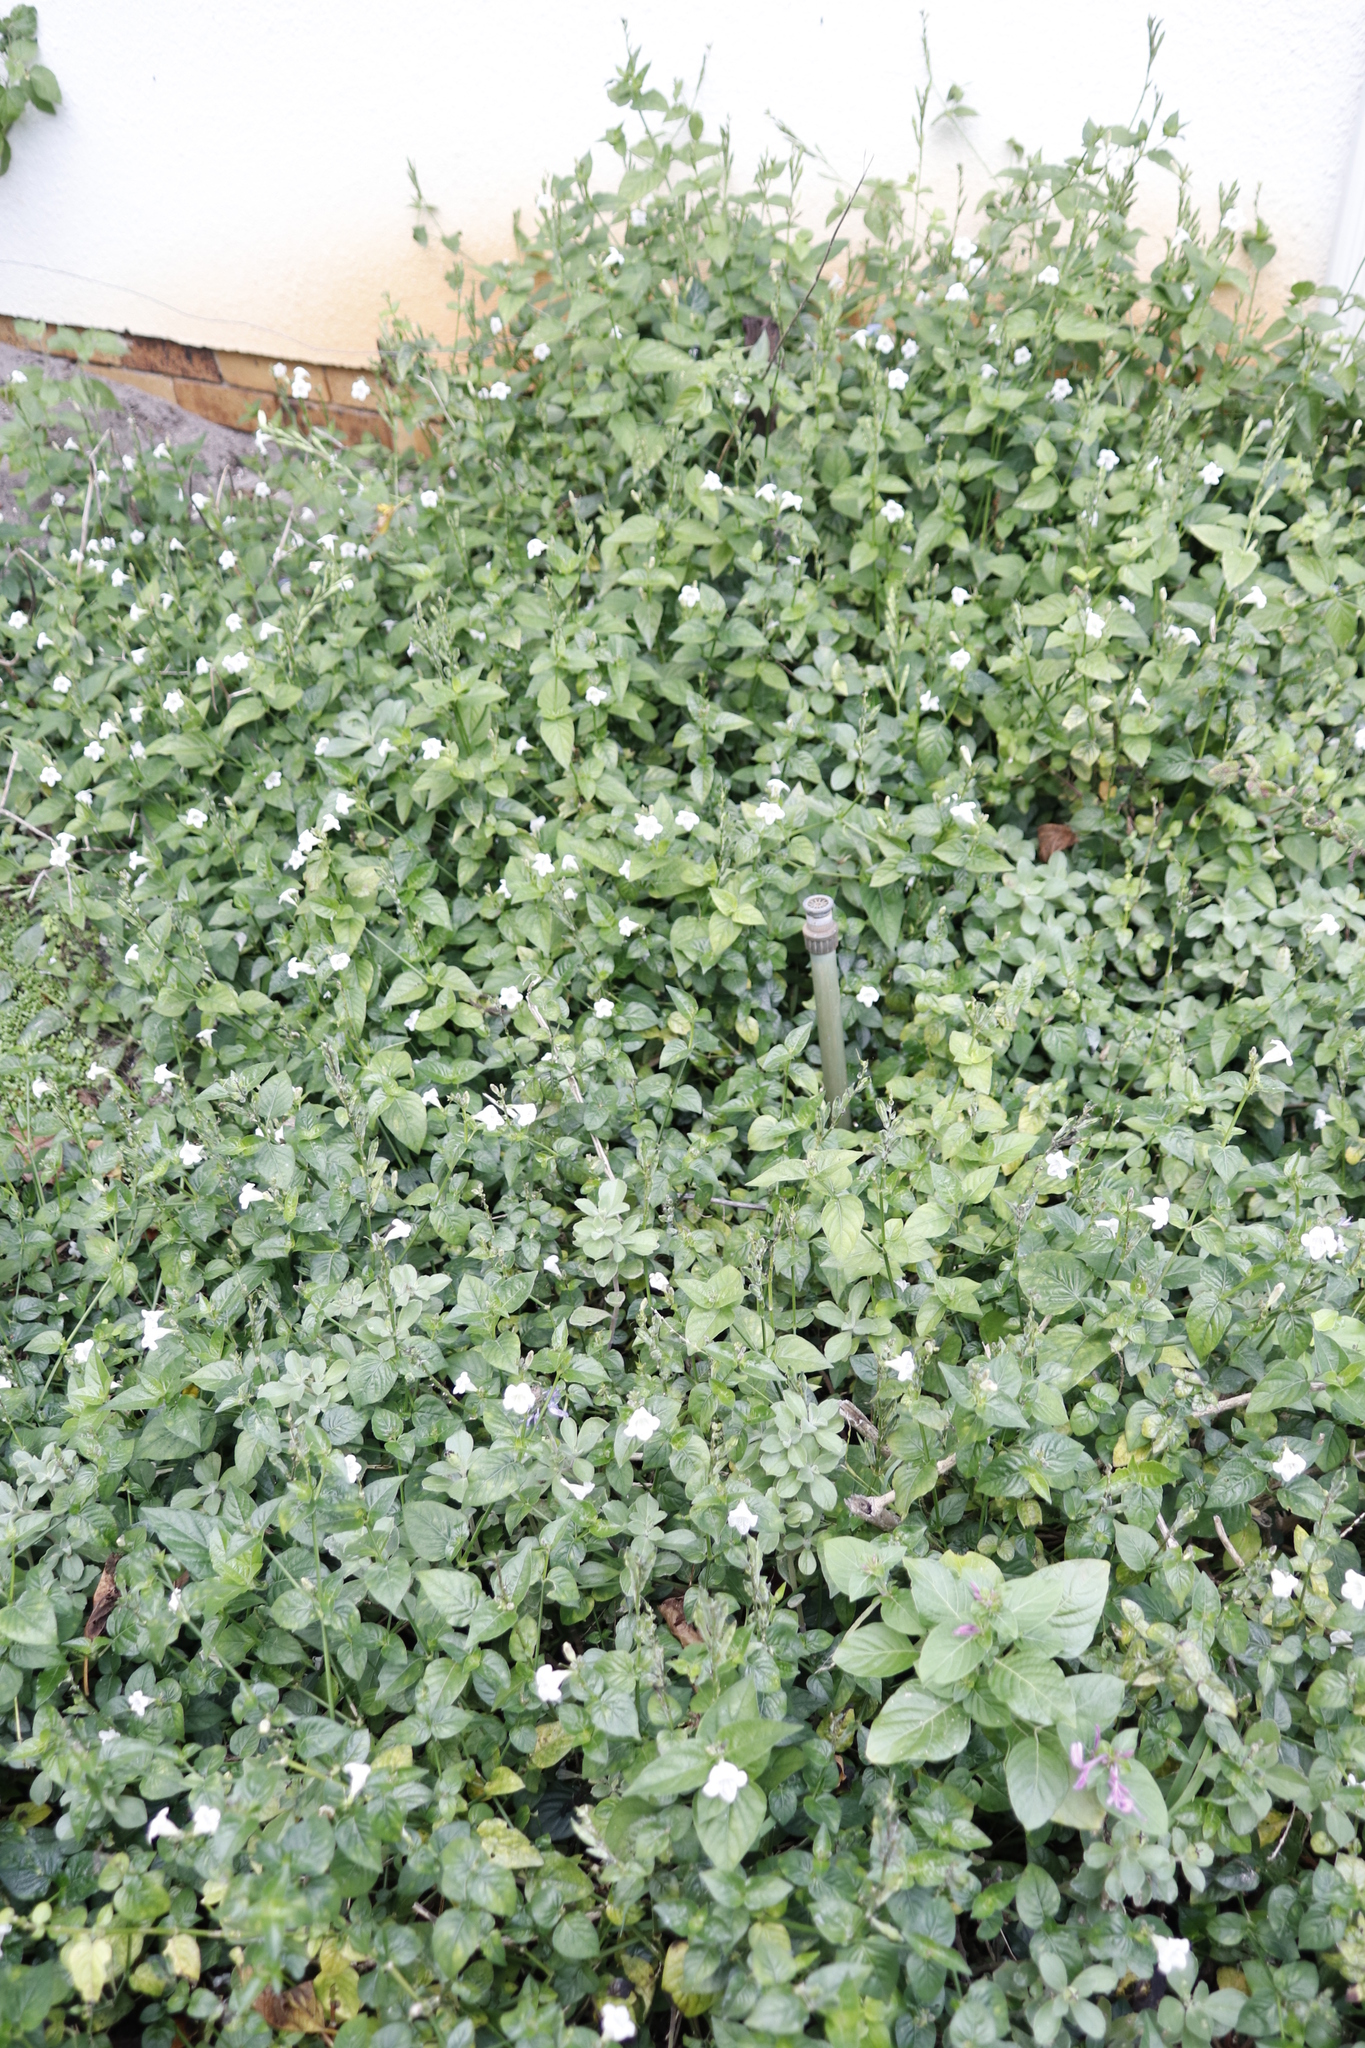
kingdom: Plantae
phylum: Tracheophyta
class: Magnoliopsida
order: Lamiales
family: Acanthaceae
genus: Asystasia
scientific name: Asystasia intrusa
